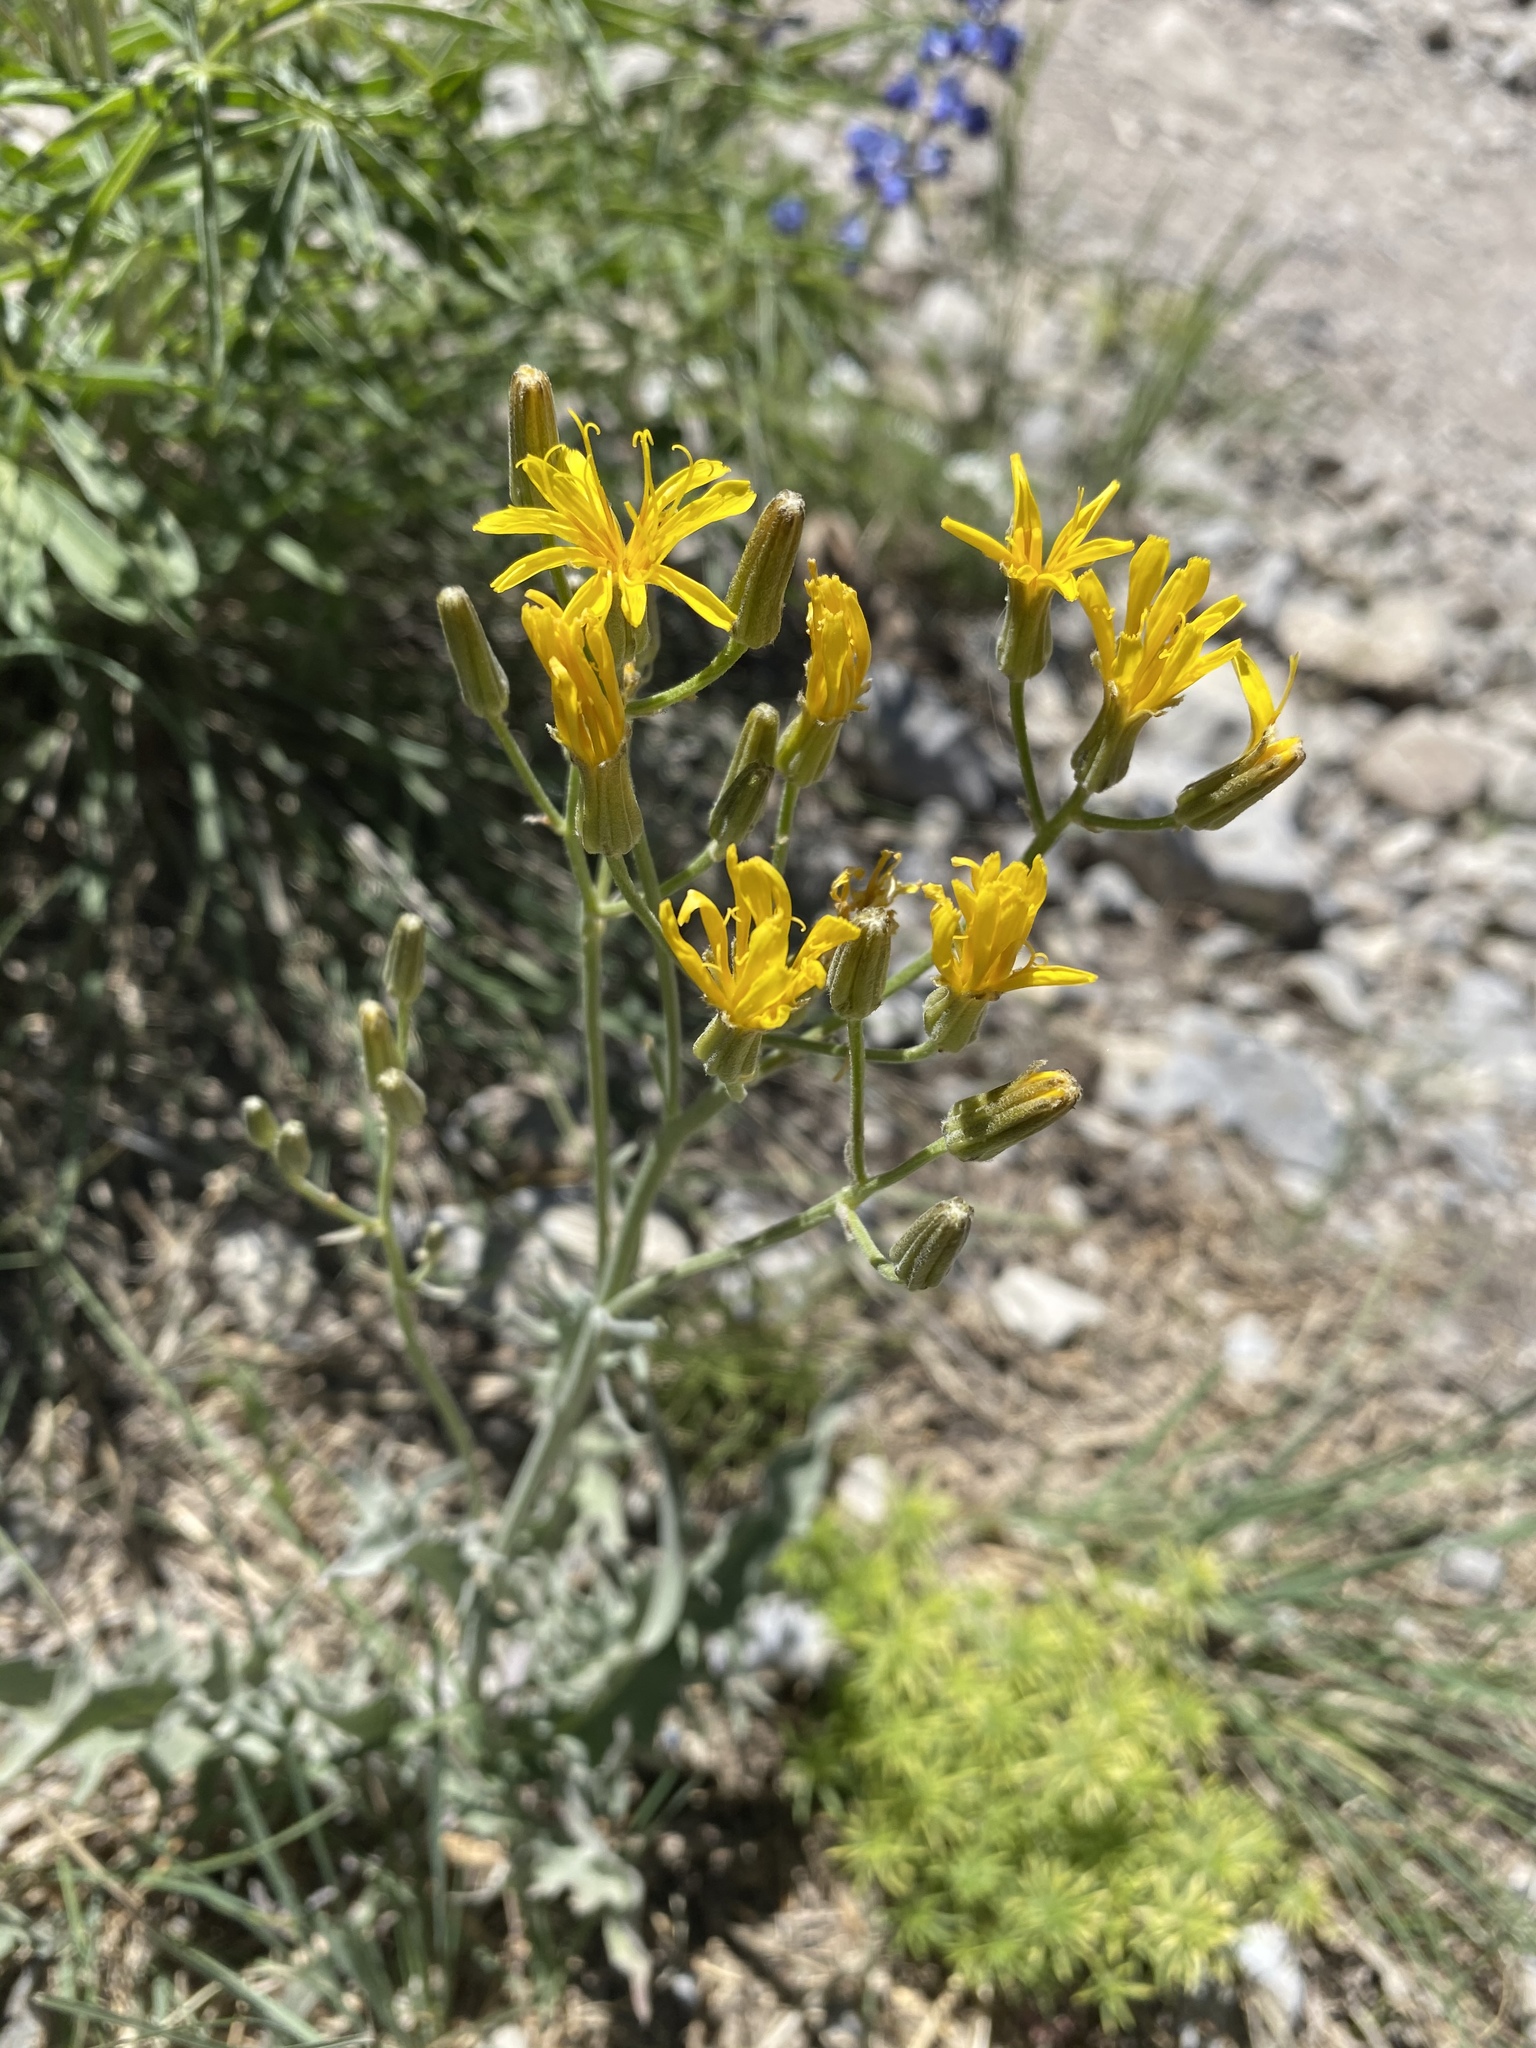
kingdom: Plantae
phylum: Tracheophyta
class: Magnoliopsida
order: Asterales
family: Asteraceae
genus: Crepis
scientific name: Crepis intermedia
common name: Limestone hawk's-beard
